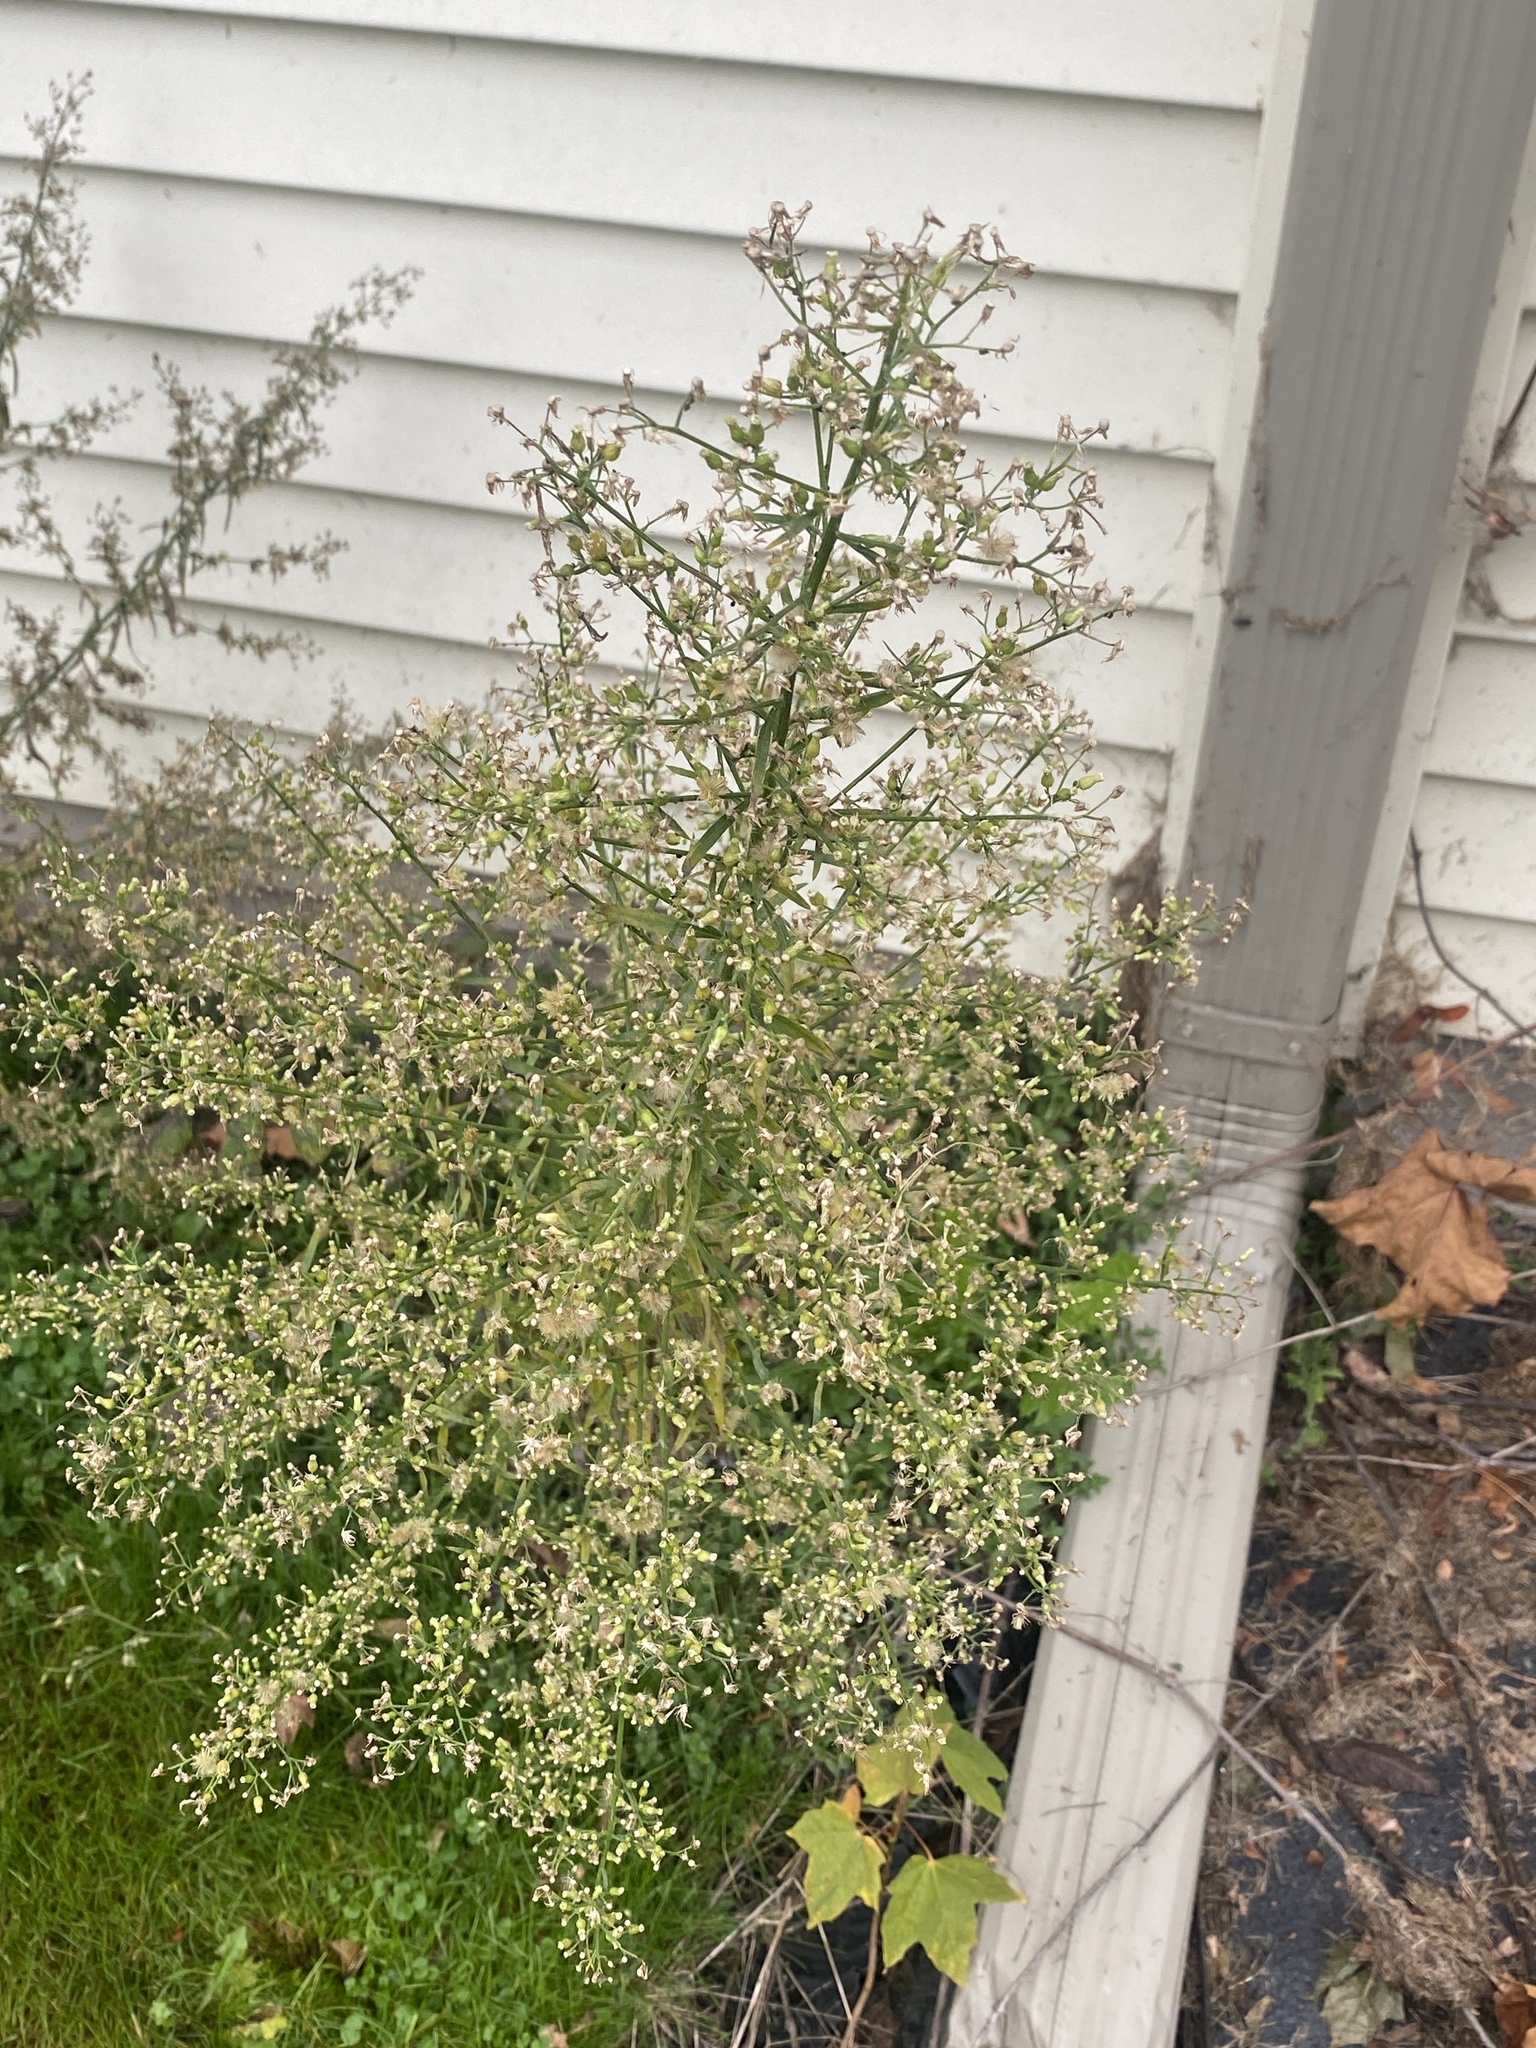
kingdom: Plantae
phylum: Tracheophyta
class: Magnoliopsida
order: Asterales
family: Asteraceae
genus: Erigeron
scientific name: Erigeron canadensis
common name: Canadian fleabane
